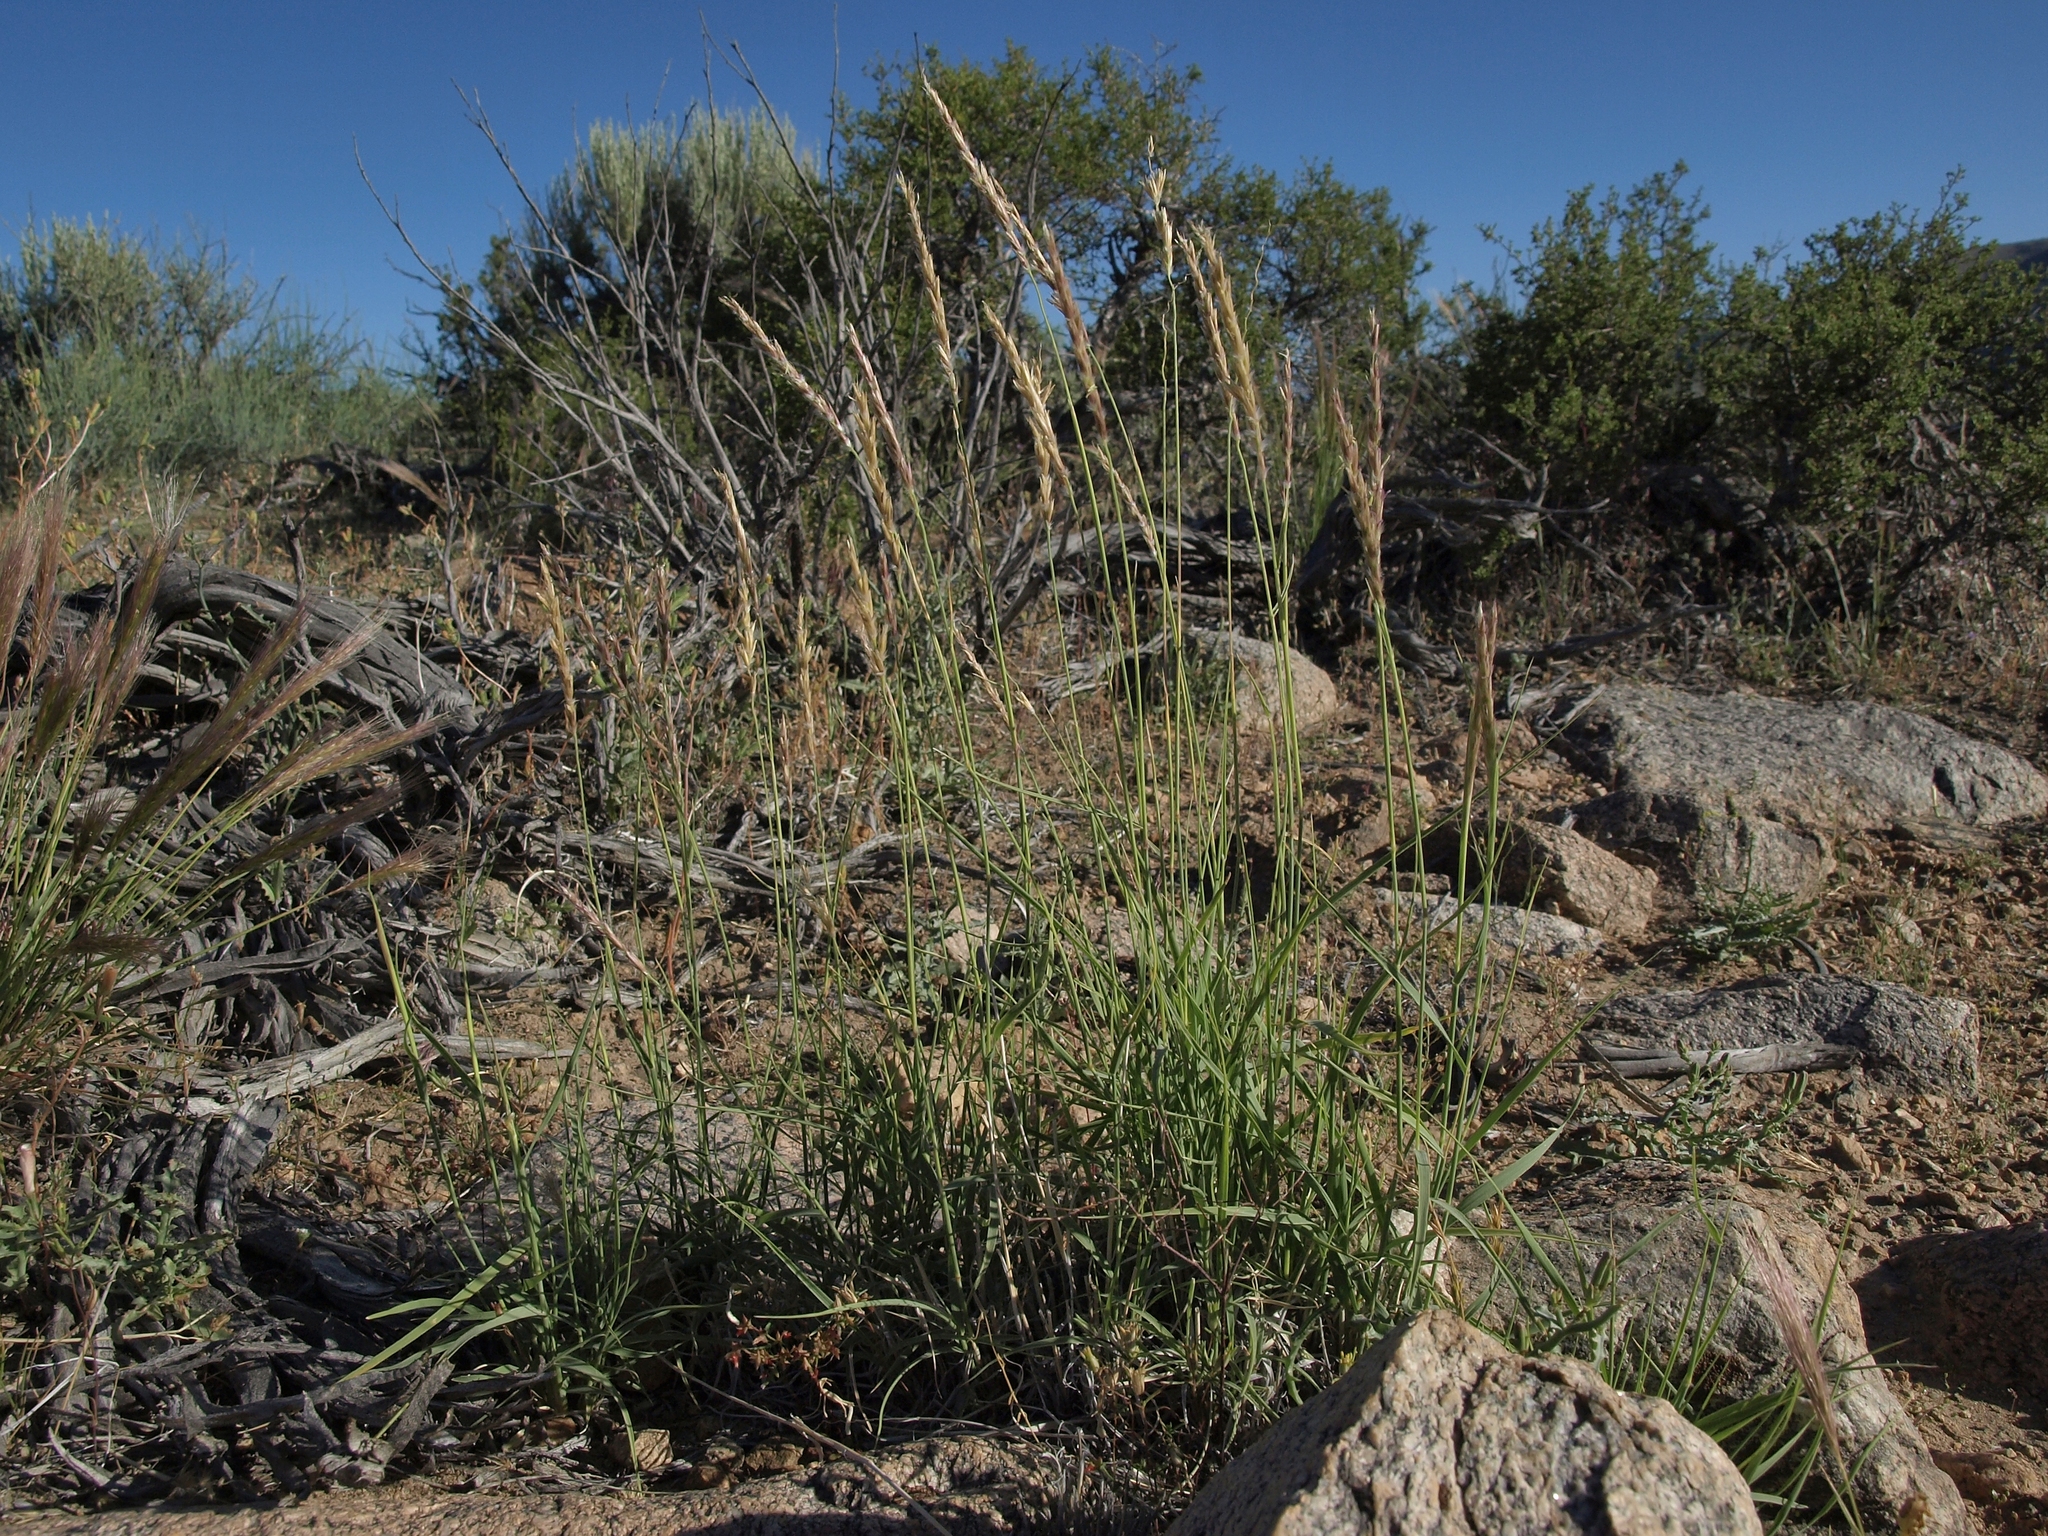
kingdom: Plantae
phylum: Tracheophyta
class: Liliopsida
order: Poales
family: Poaceae
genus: Hilaria
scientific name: Hilaria jamesii
